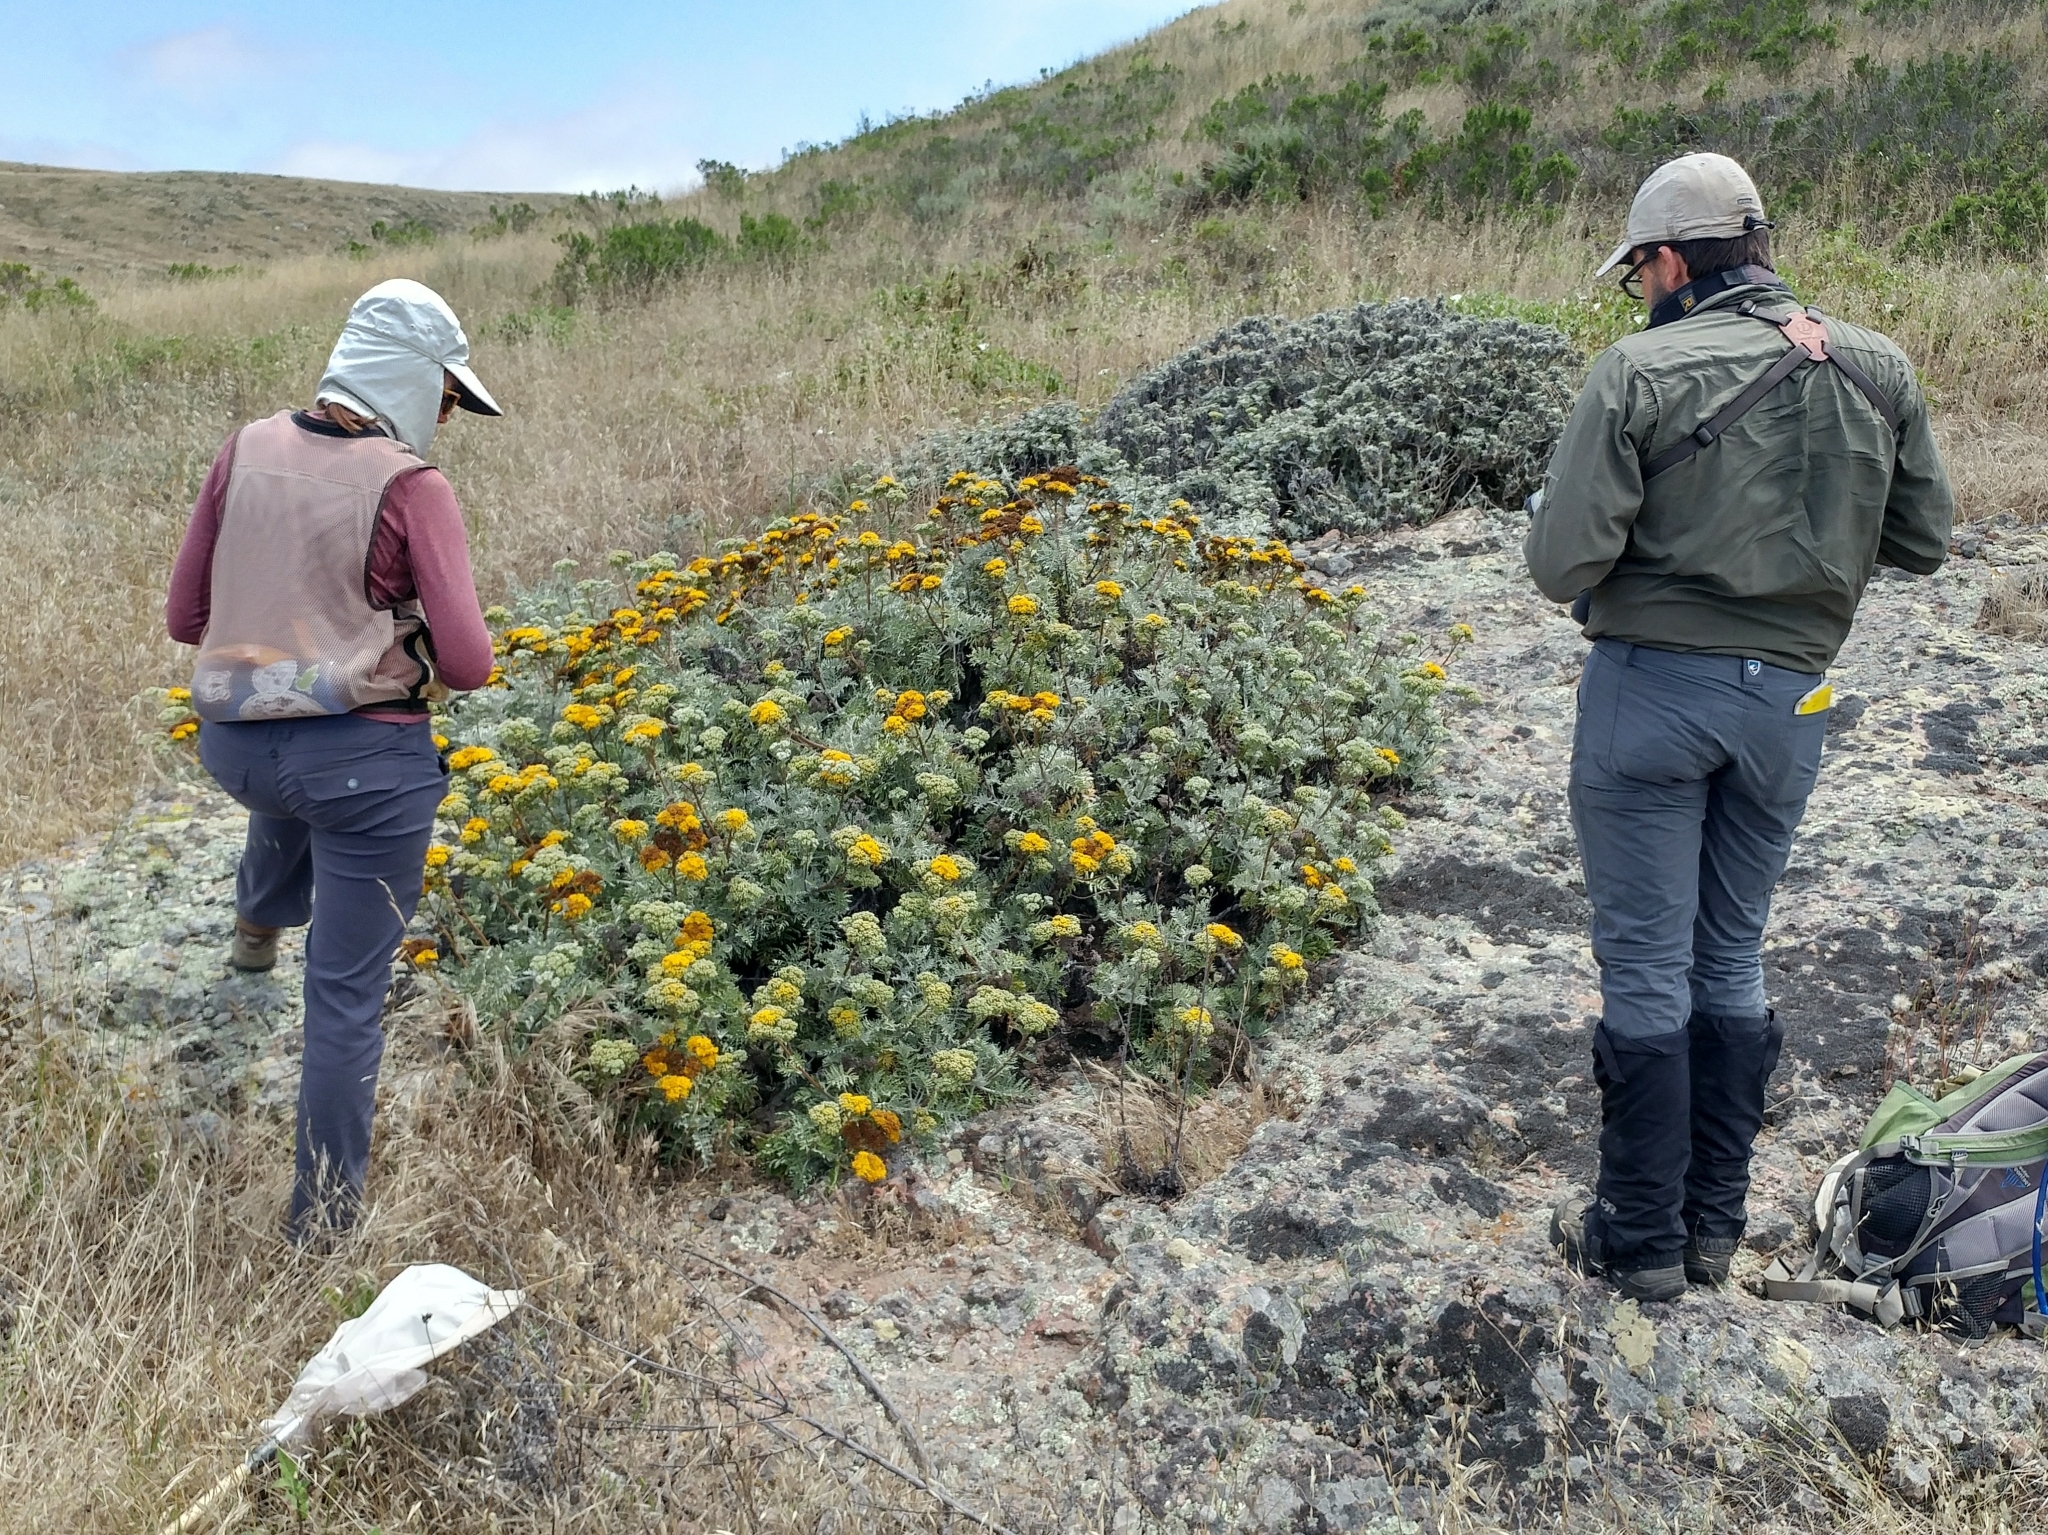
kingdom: Plantae
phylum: Tracheophyta
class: Magnoliopsida
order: Asterales
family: Asteraceae
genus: Constancea
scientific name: Constancea nevinii
